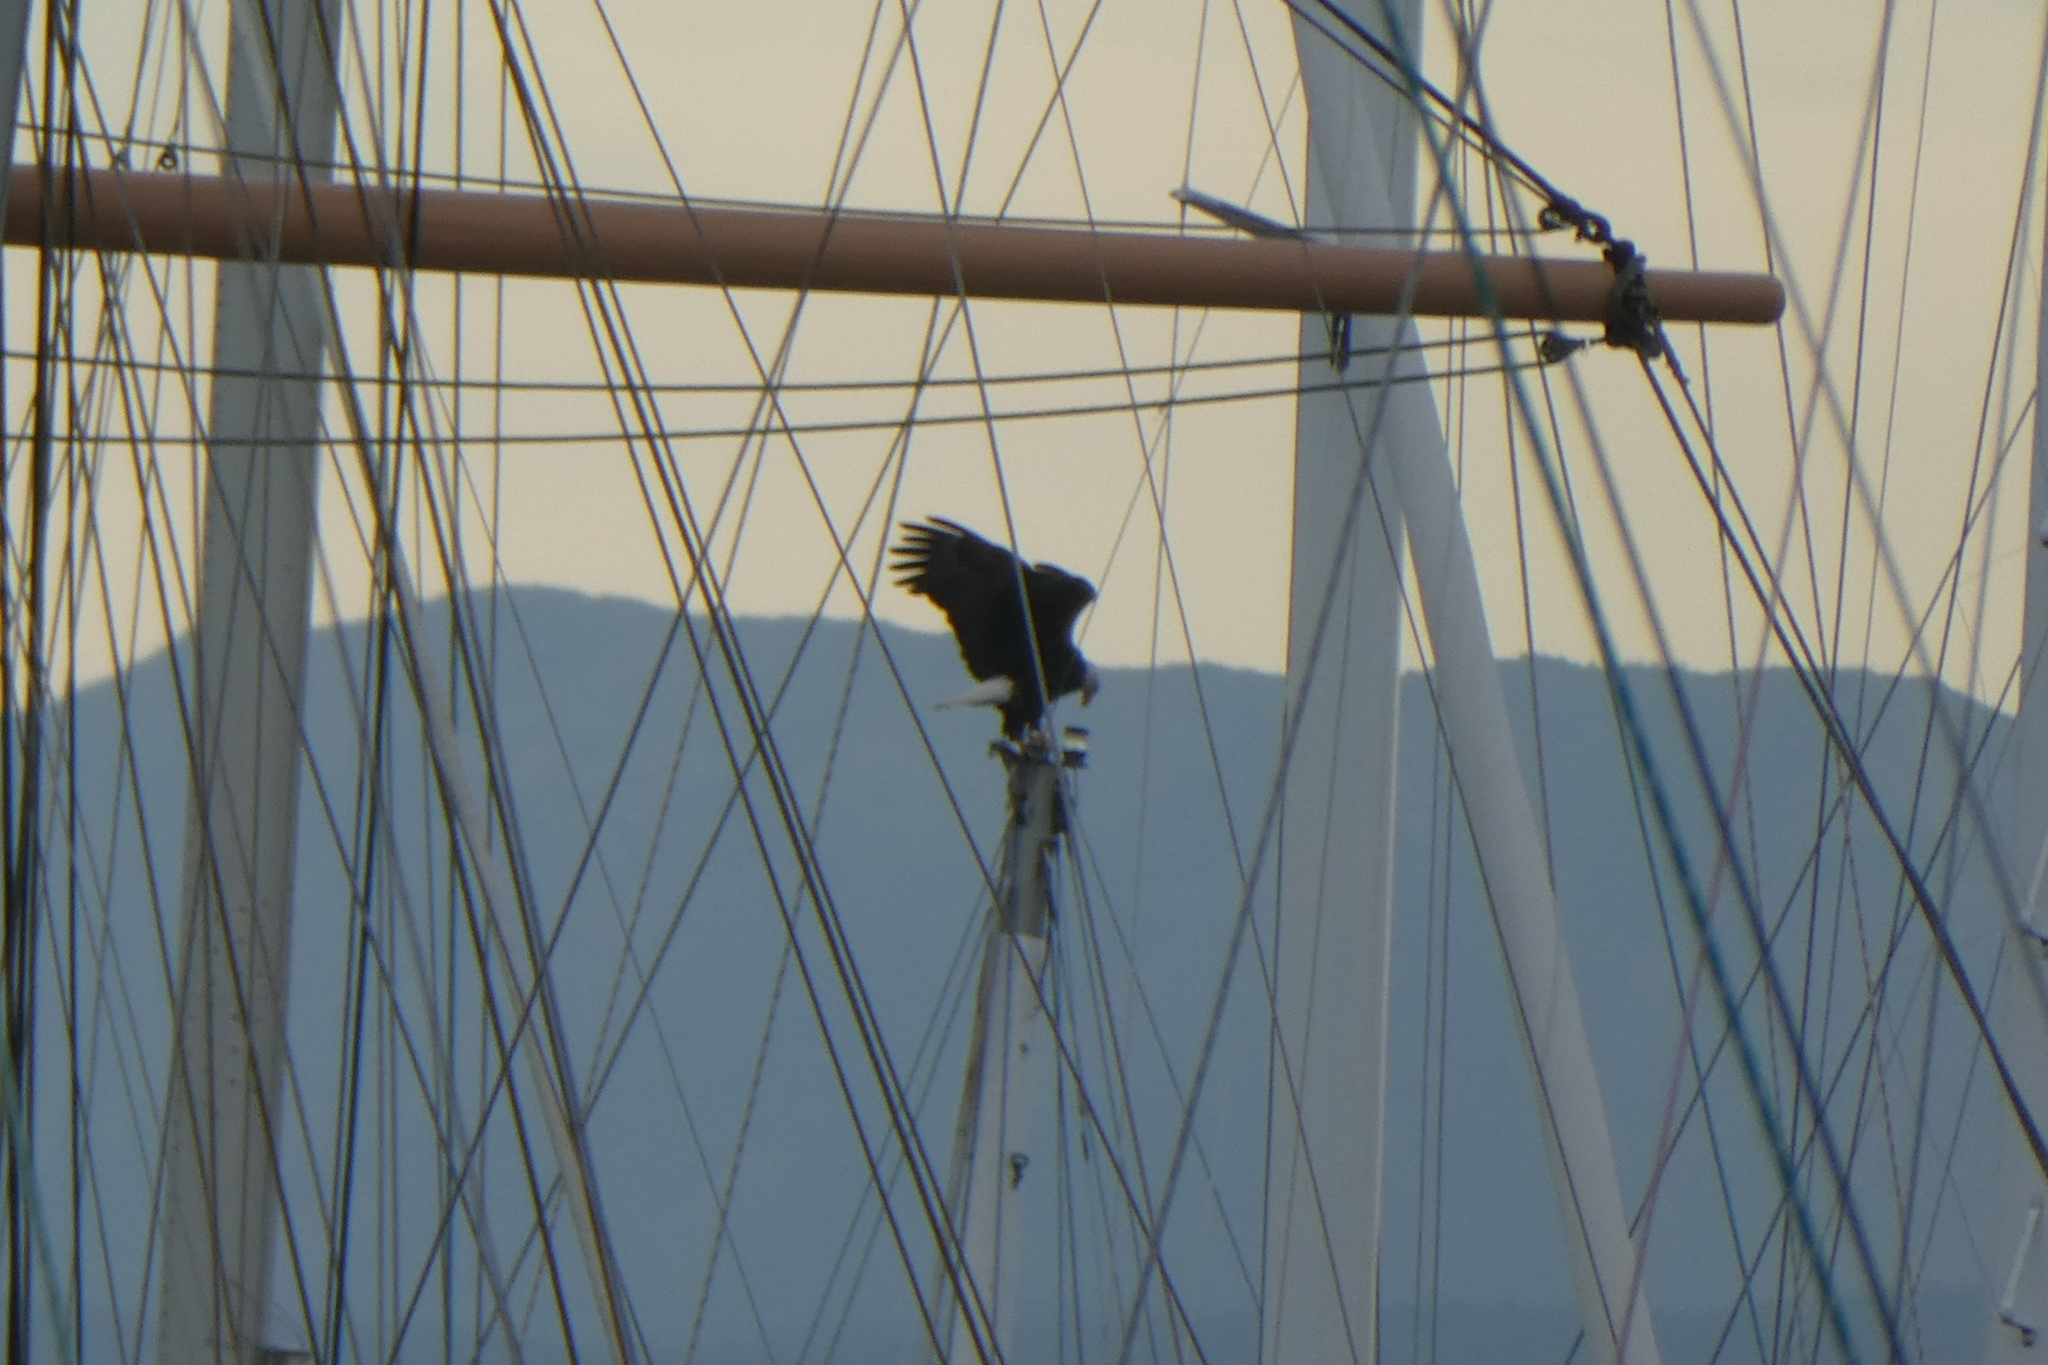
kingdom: Animalia
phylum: Chordata
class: Aves
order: Accipitriformes
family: Accipitridae
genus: Haliaeetus
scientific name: Haliaeetus leucocephalus
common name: Bald eagle
